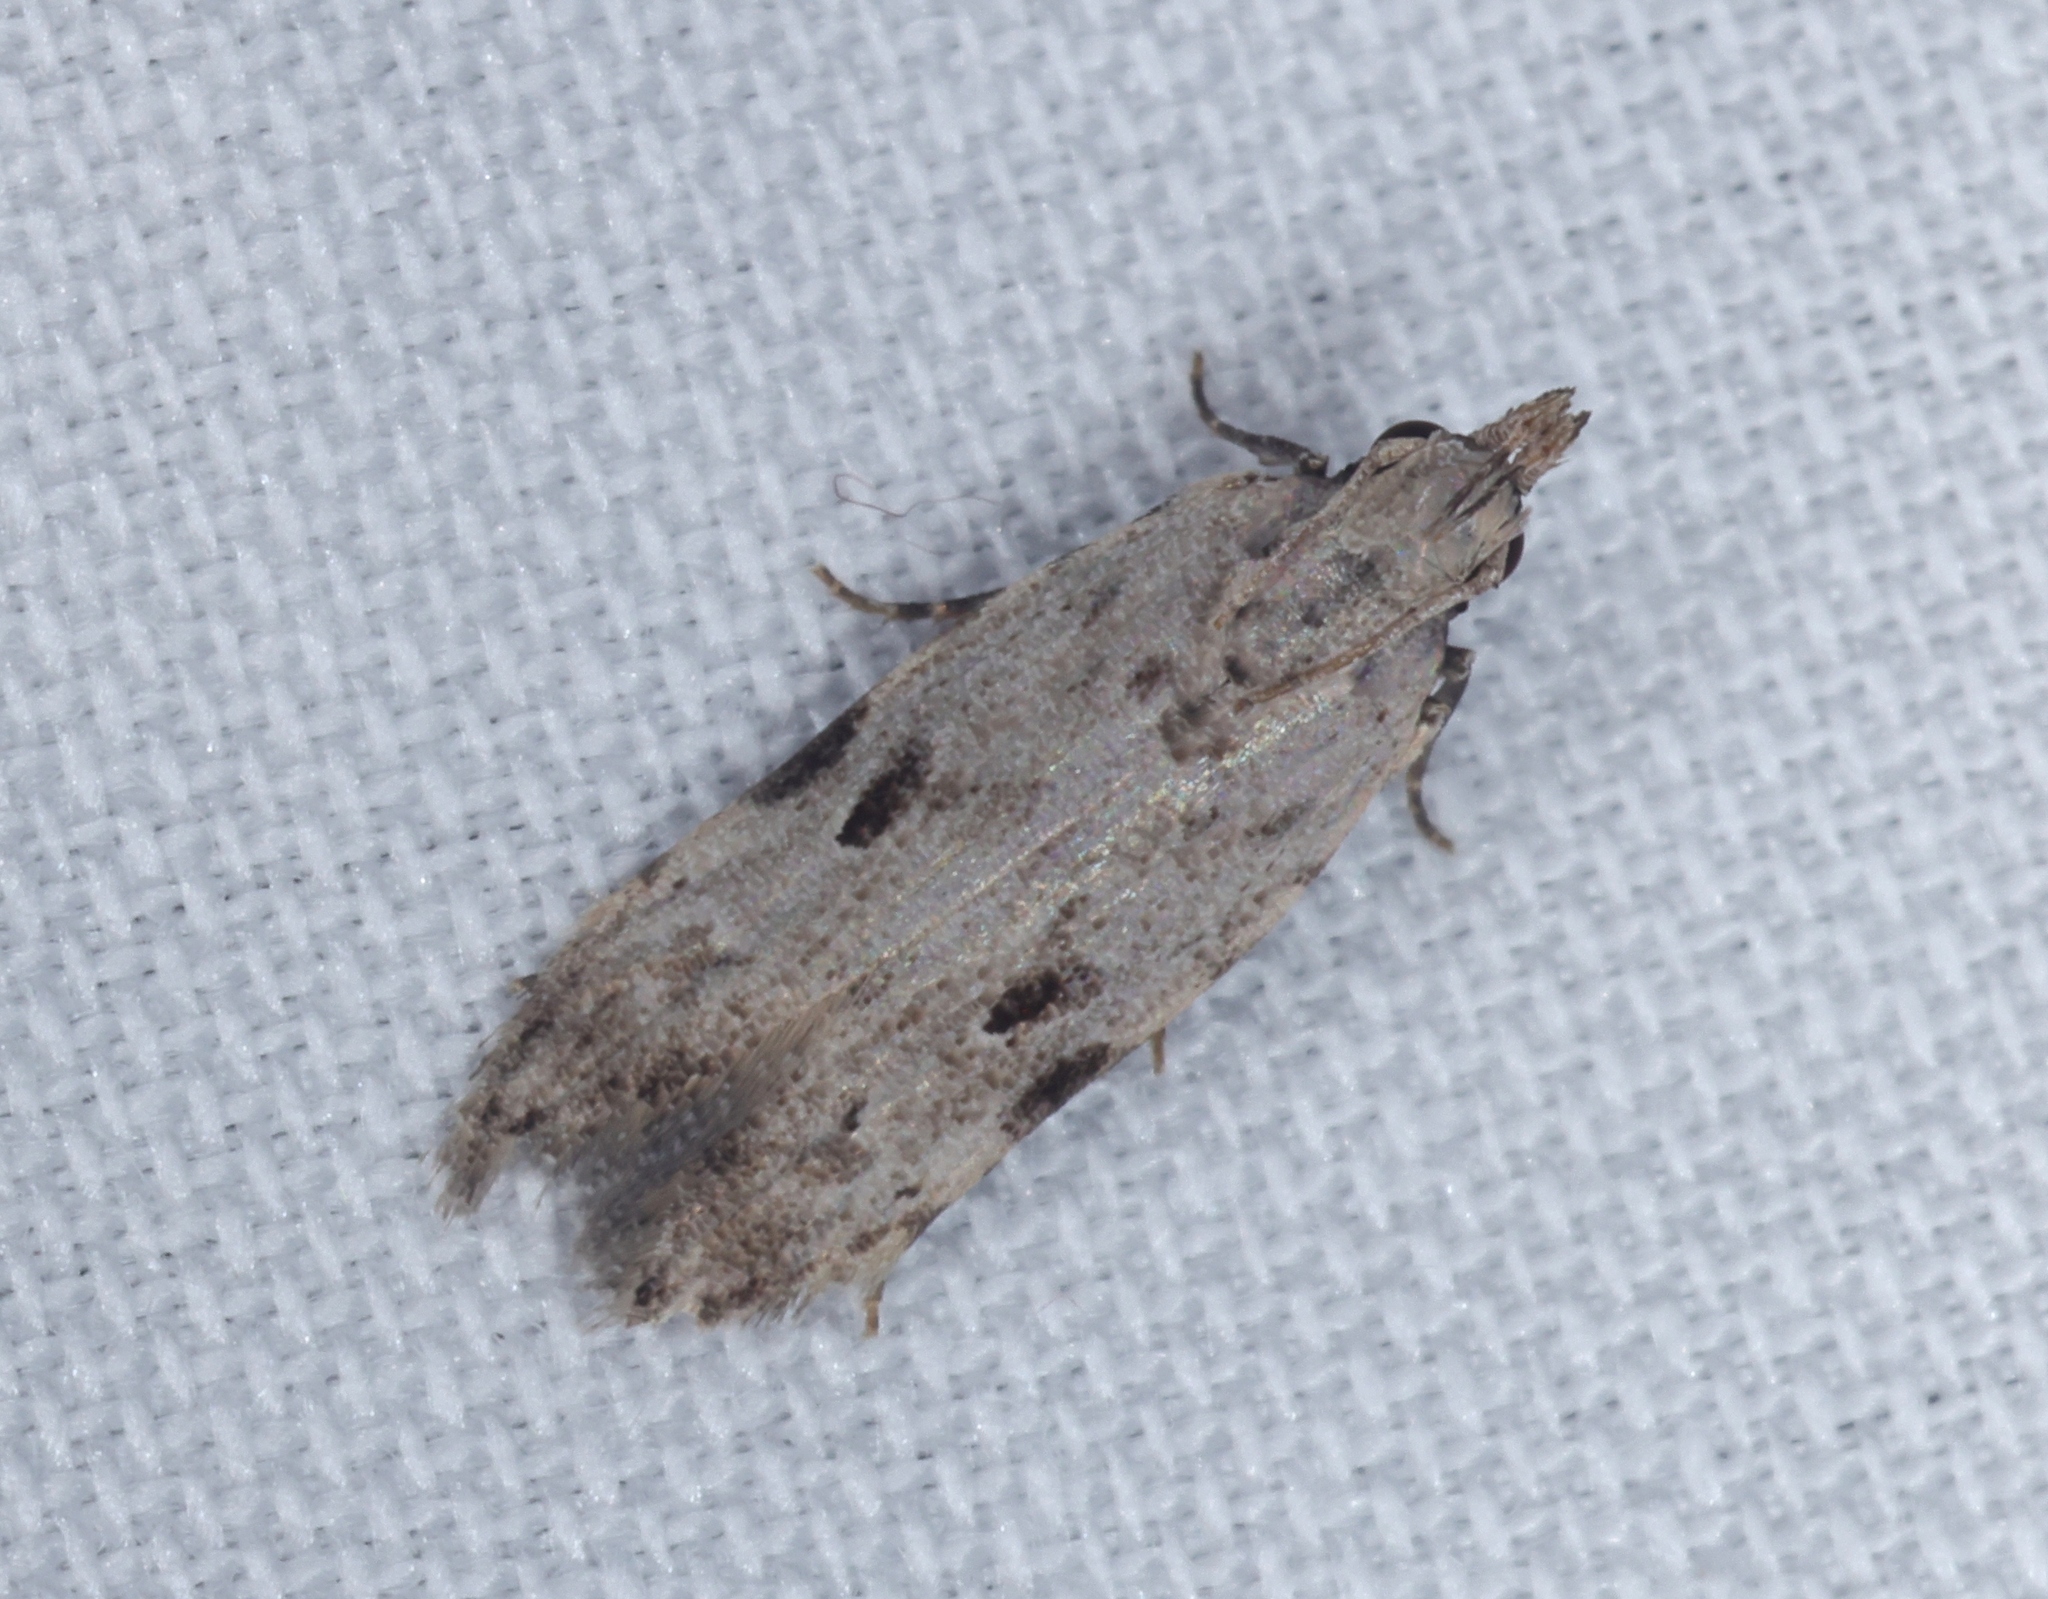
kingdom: Animalia
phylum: Arthropoda
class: Insecta
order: Lepidoptera
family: Gelechiidae
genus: Anarsia
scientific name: Anarsia patulella
